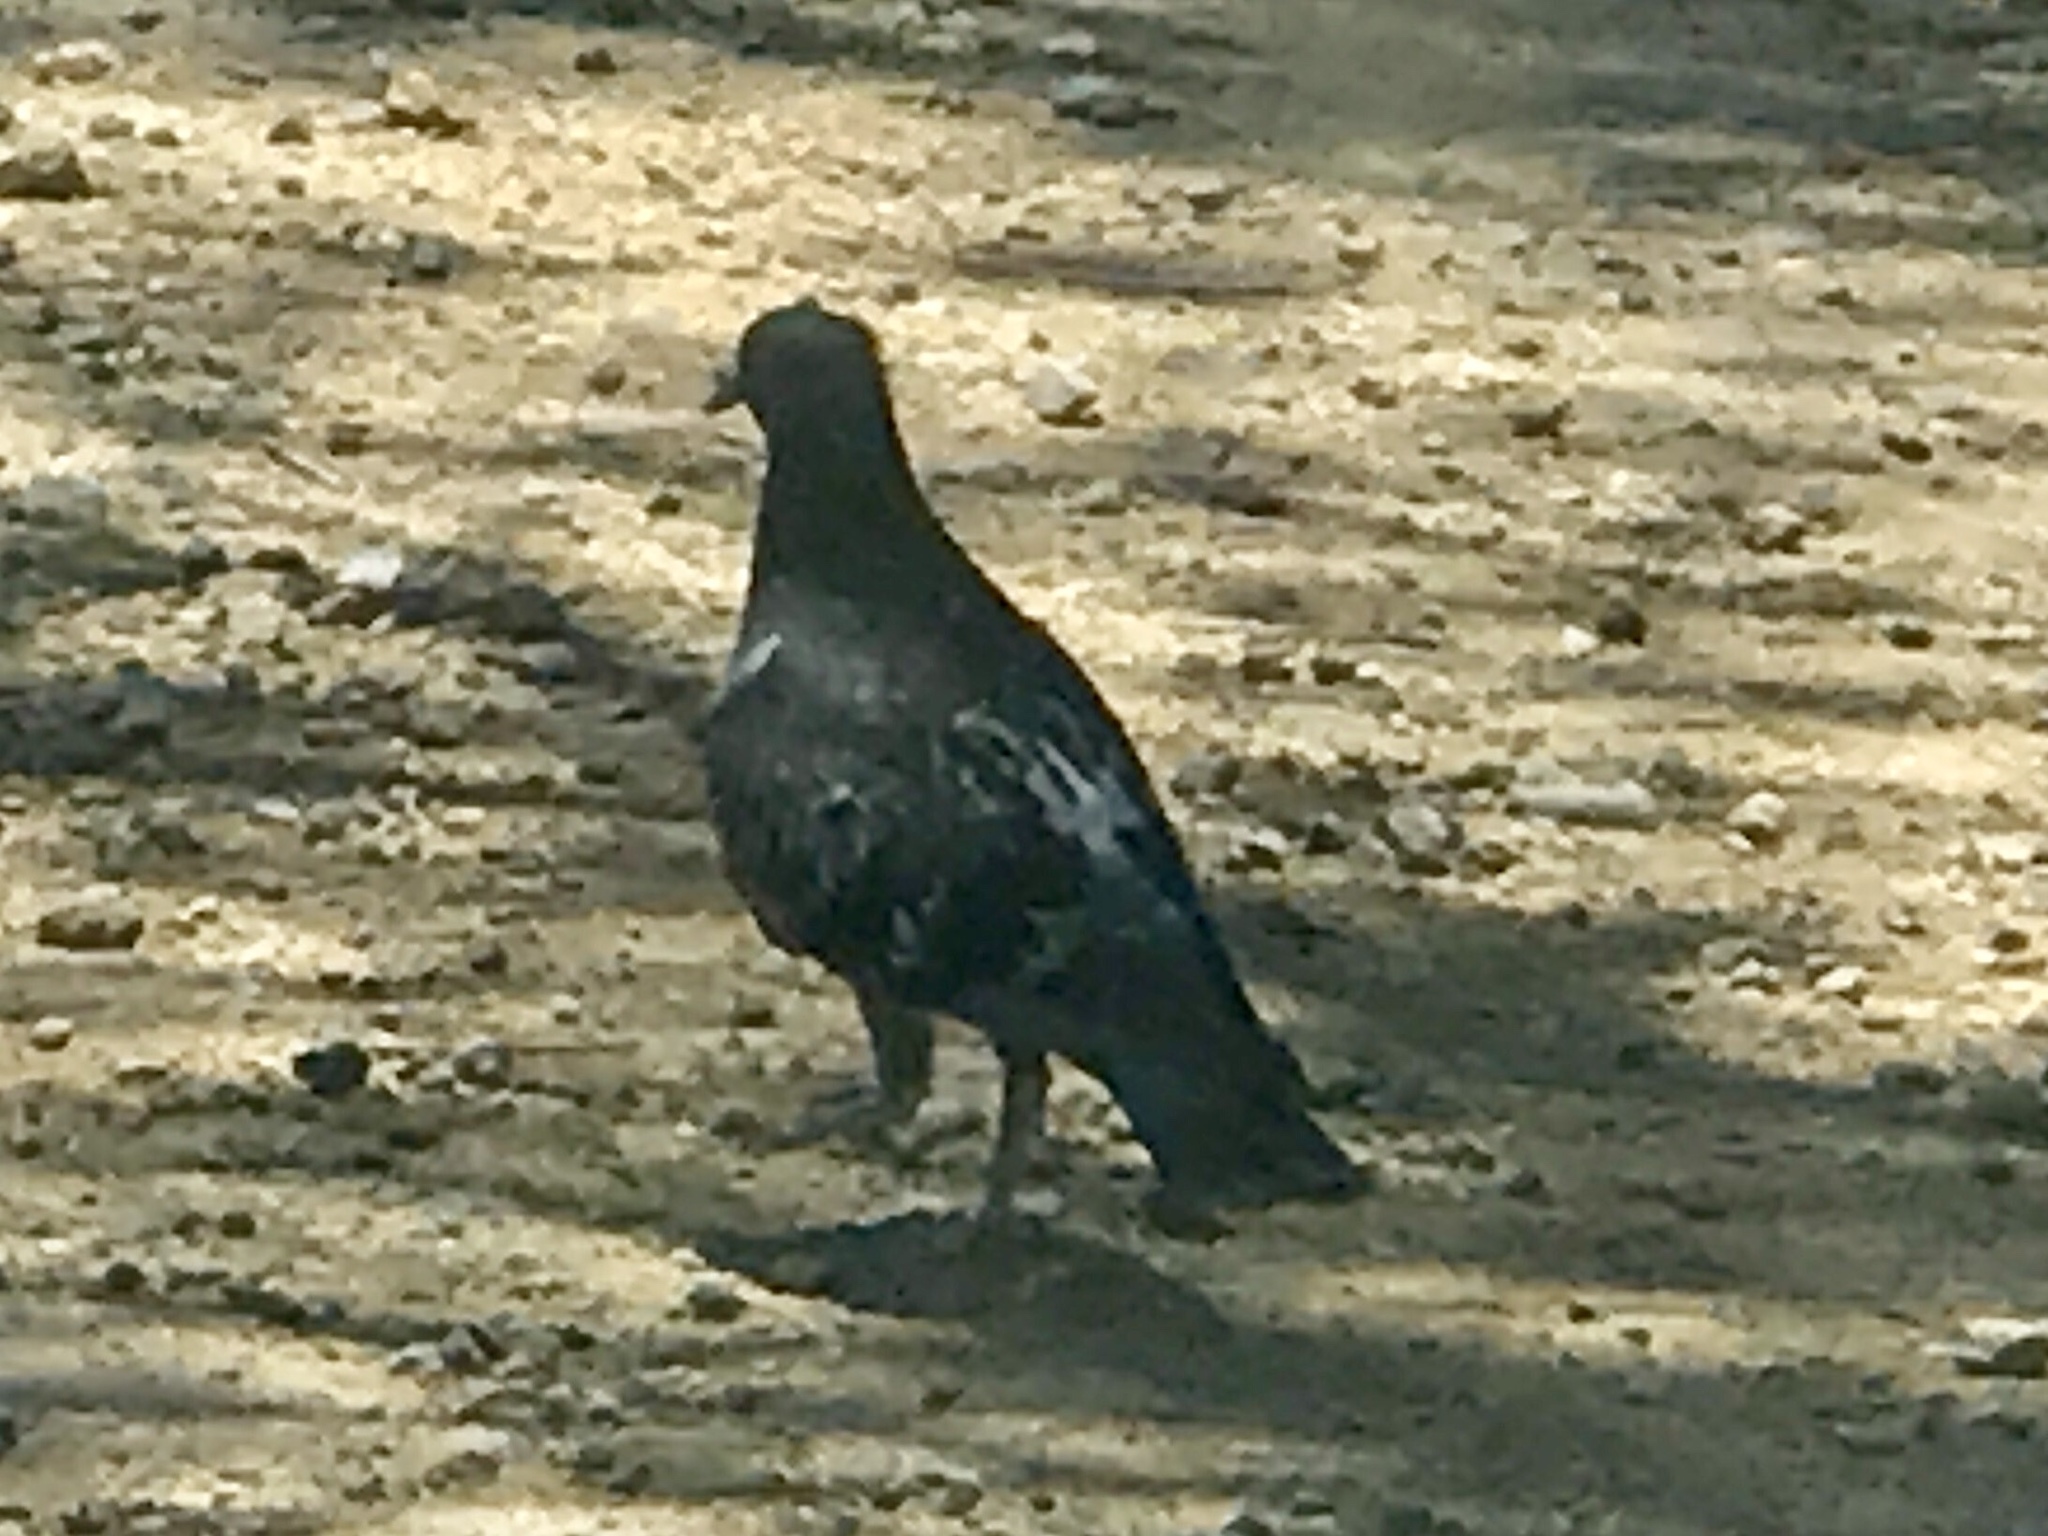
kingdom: Animalia
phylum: Chordata
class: Aves
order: Columbiformes
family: Columbidae
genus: Columba
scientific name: Columba livia
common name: Rock pigeon
